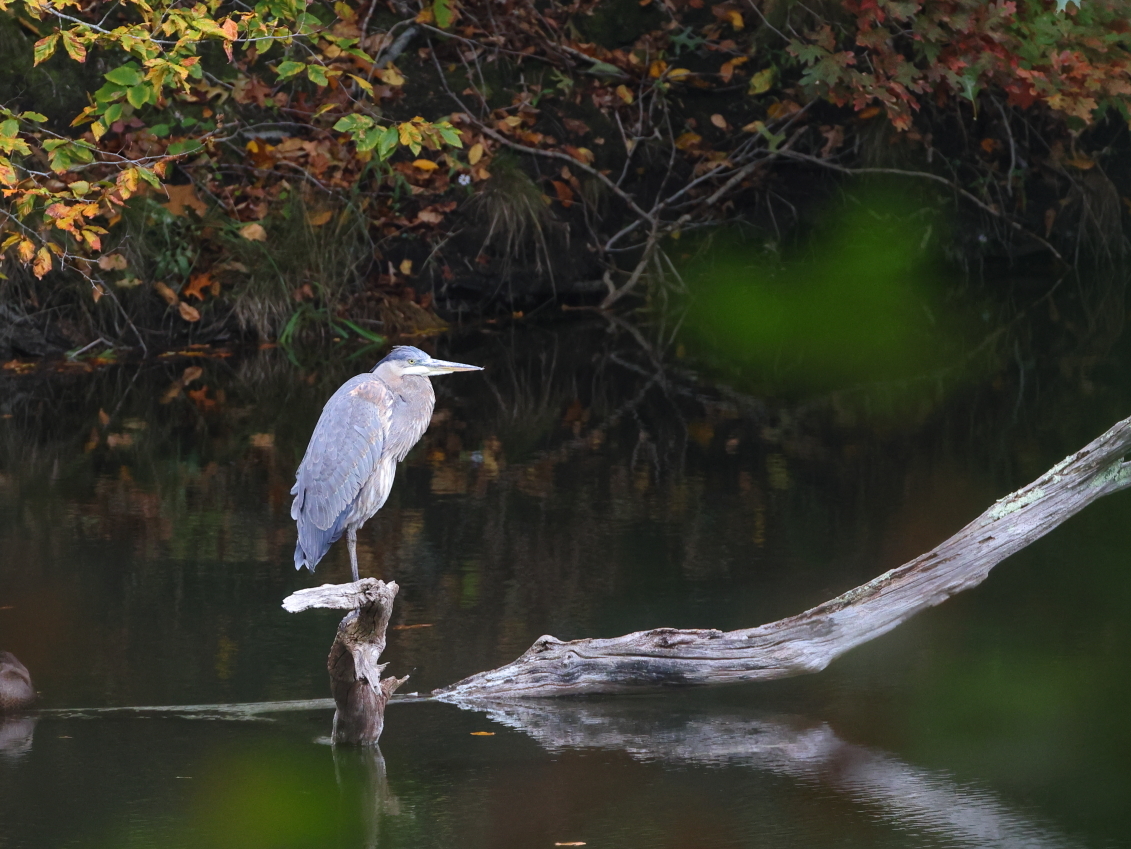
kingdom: Animalia
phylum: Chordata
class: Aves
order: Pelecaniformes
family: Ardeidae
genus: Ardea
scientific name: Ardea herodias
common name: Great blue heron
